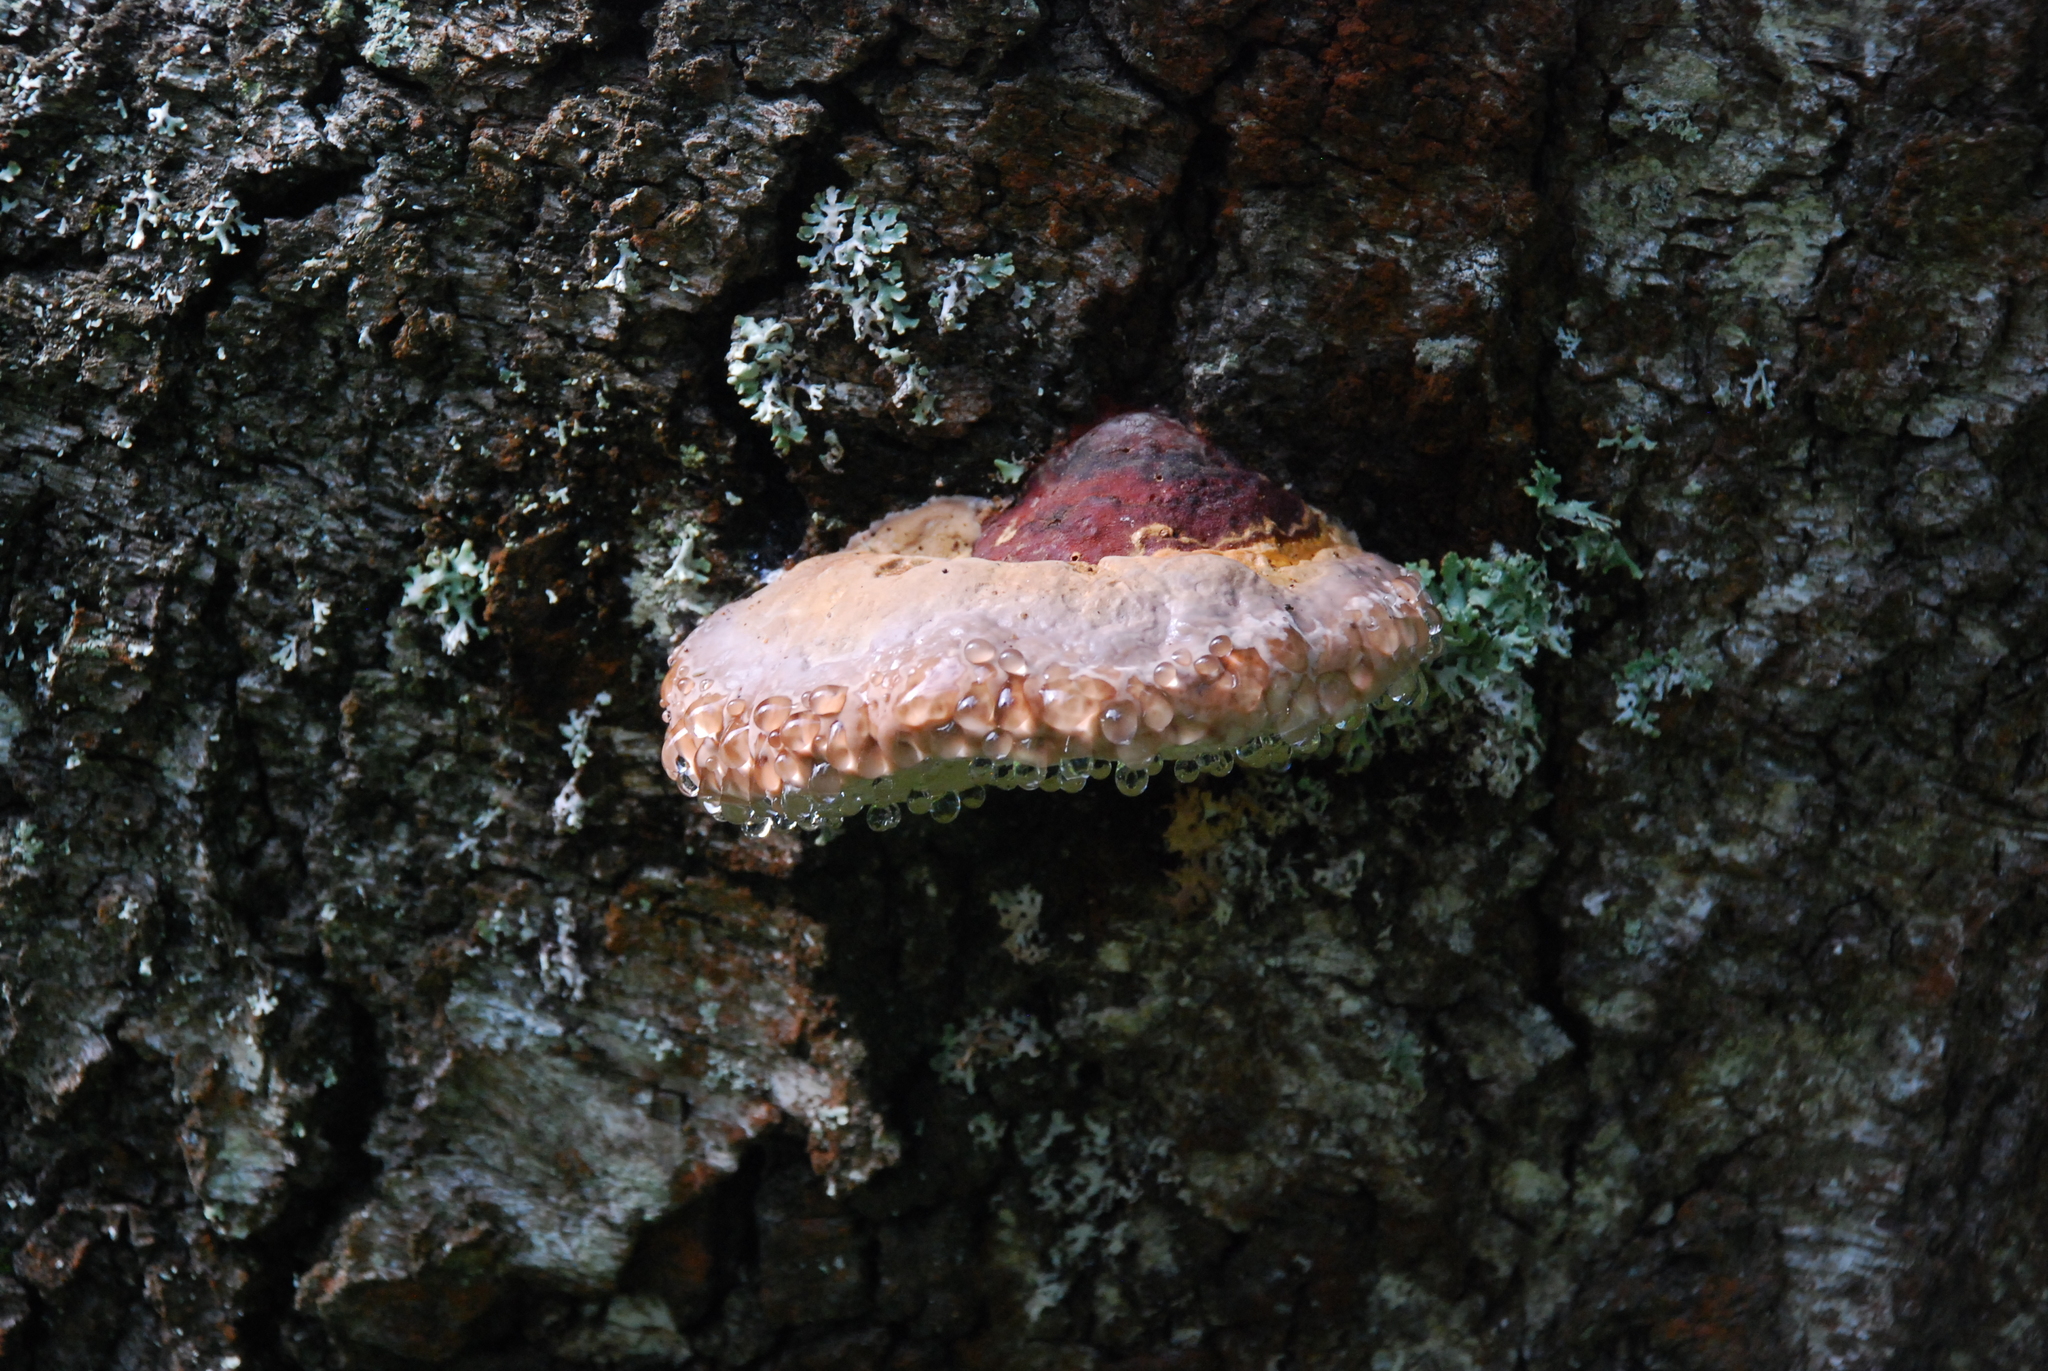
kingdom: Fungi
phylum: Basidiomycota
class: Agaricomycetes
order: Polyporales
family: Fomitopsidaceae
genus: Fomitopsis
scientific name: Fomitopsis pinicola
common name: Red-belted bracket
